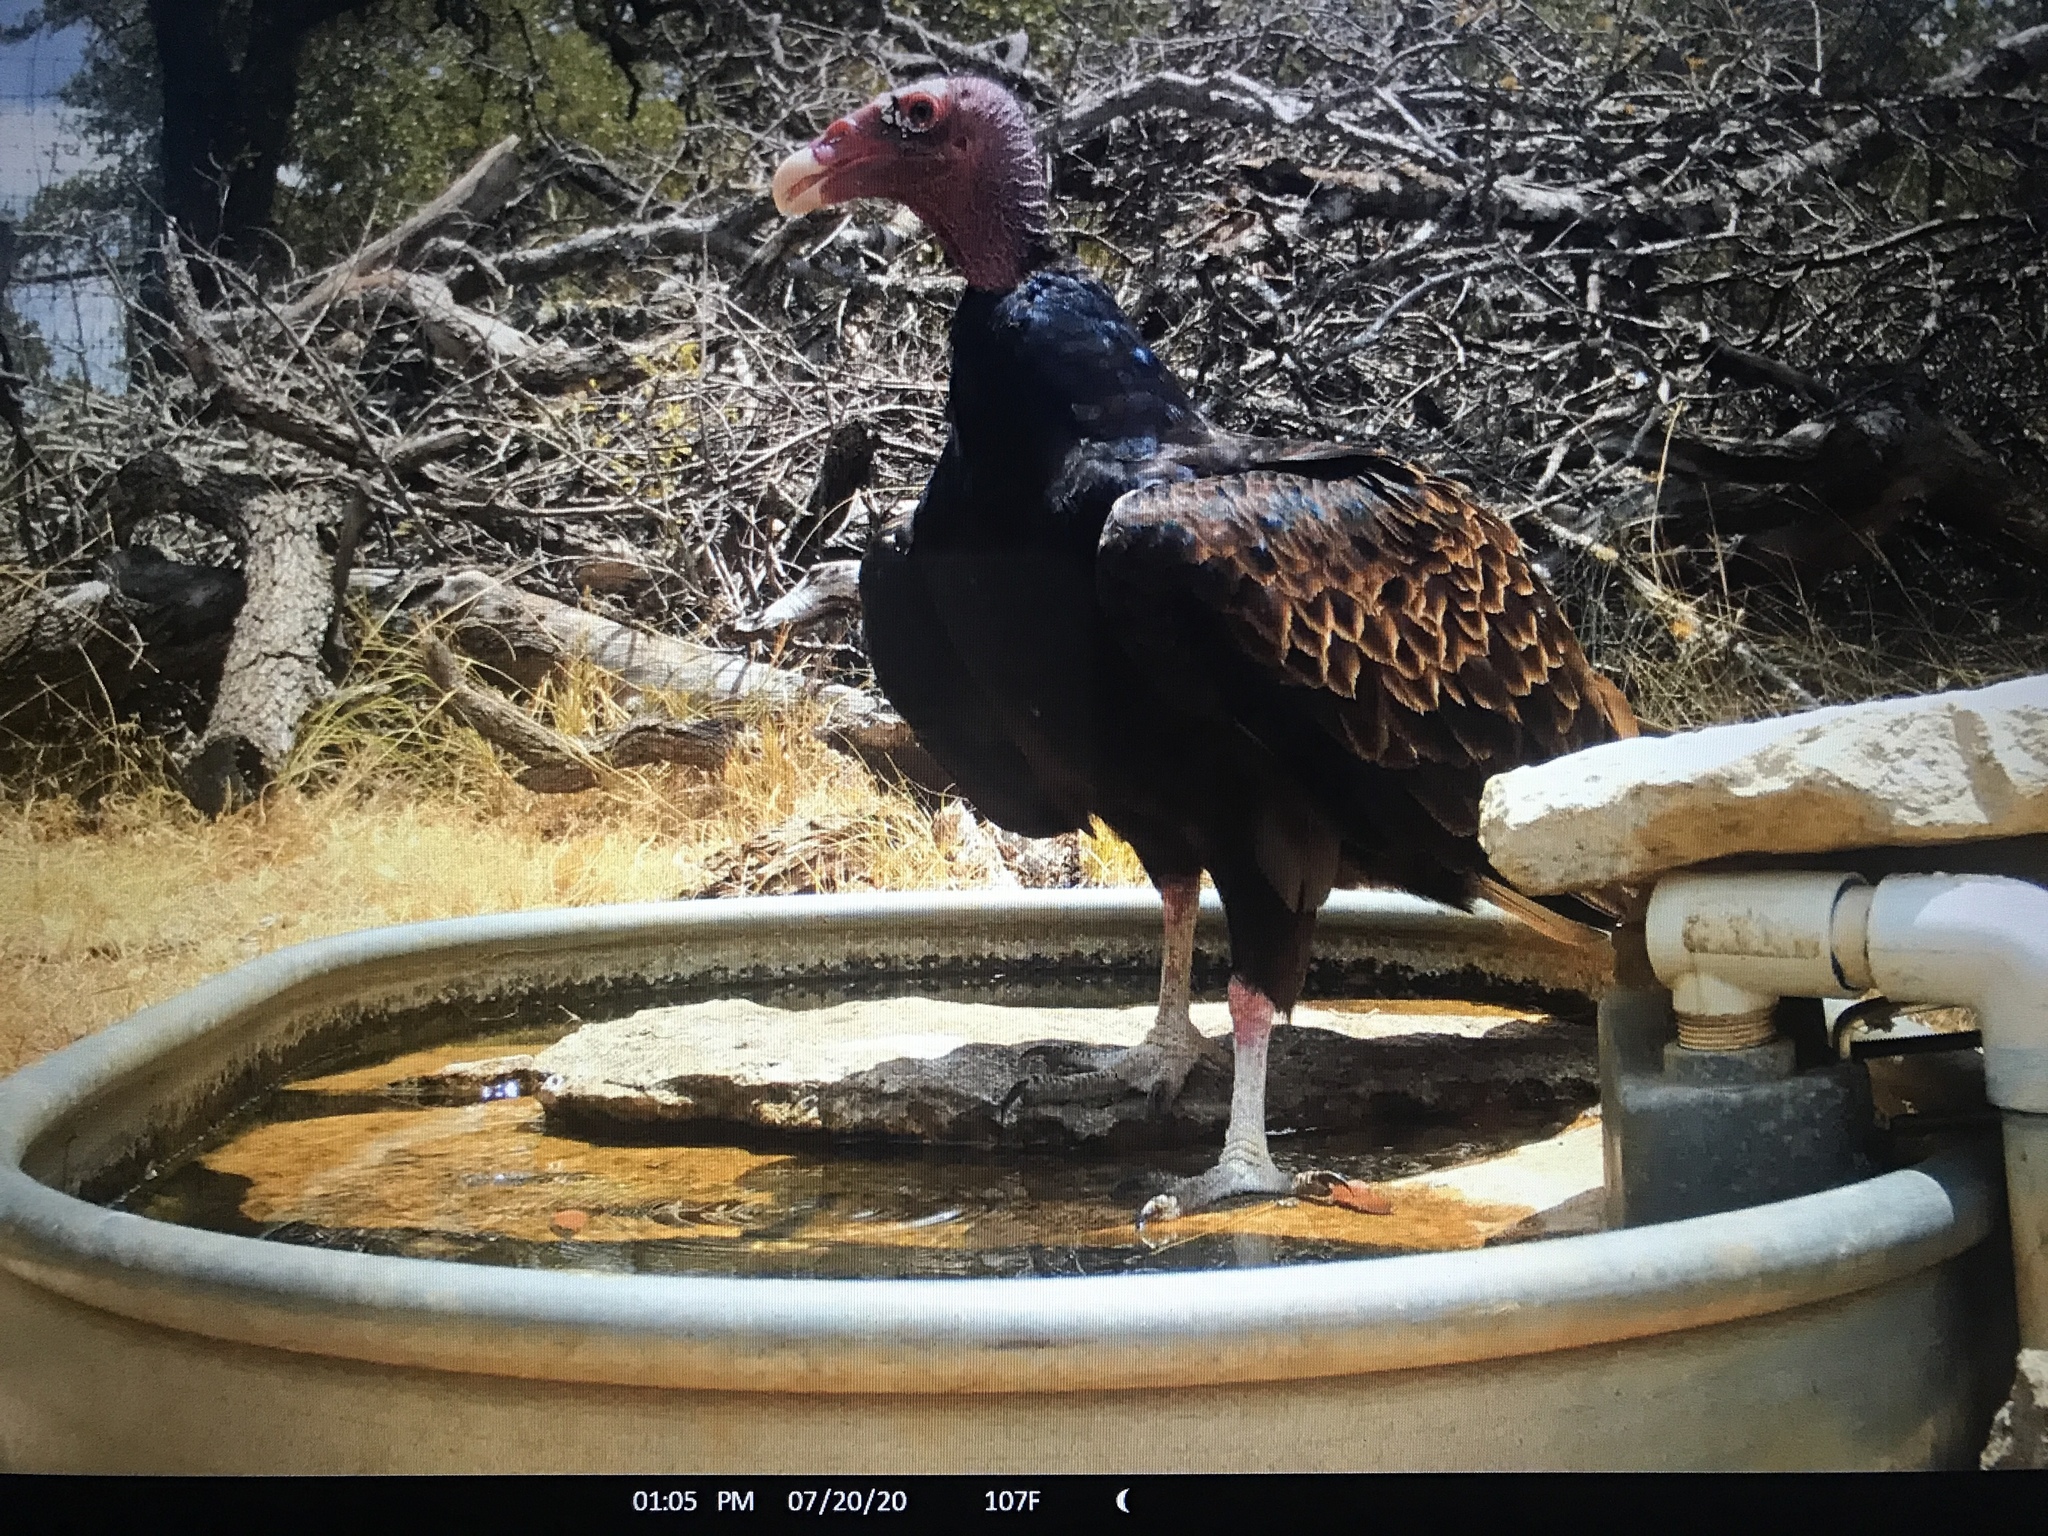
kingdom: Animalia
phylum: Chordata
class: Aves
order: Accipitriformes
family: Cathartidae
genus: Cathartes
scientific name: Cathartes aura
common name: Turkey vulture
